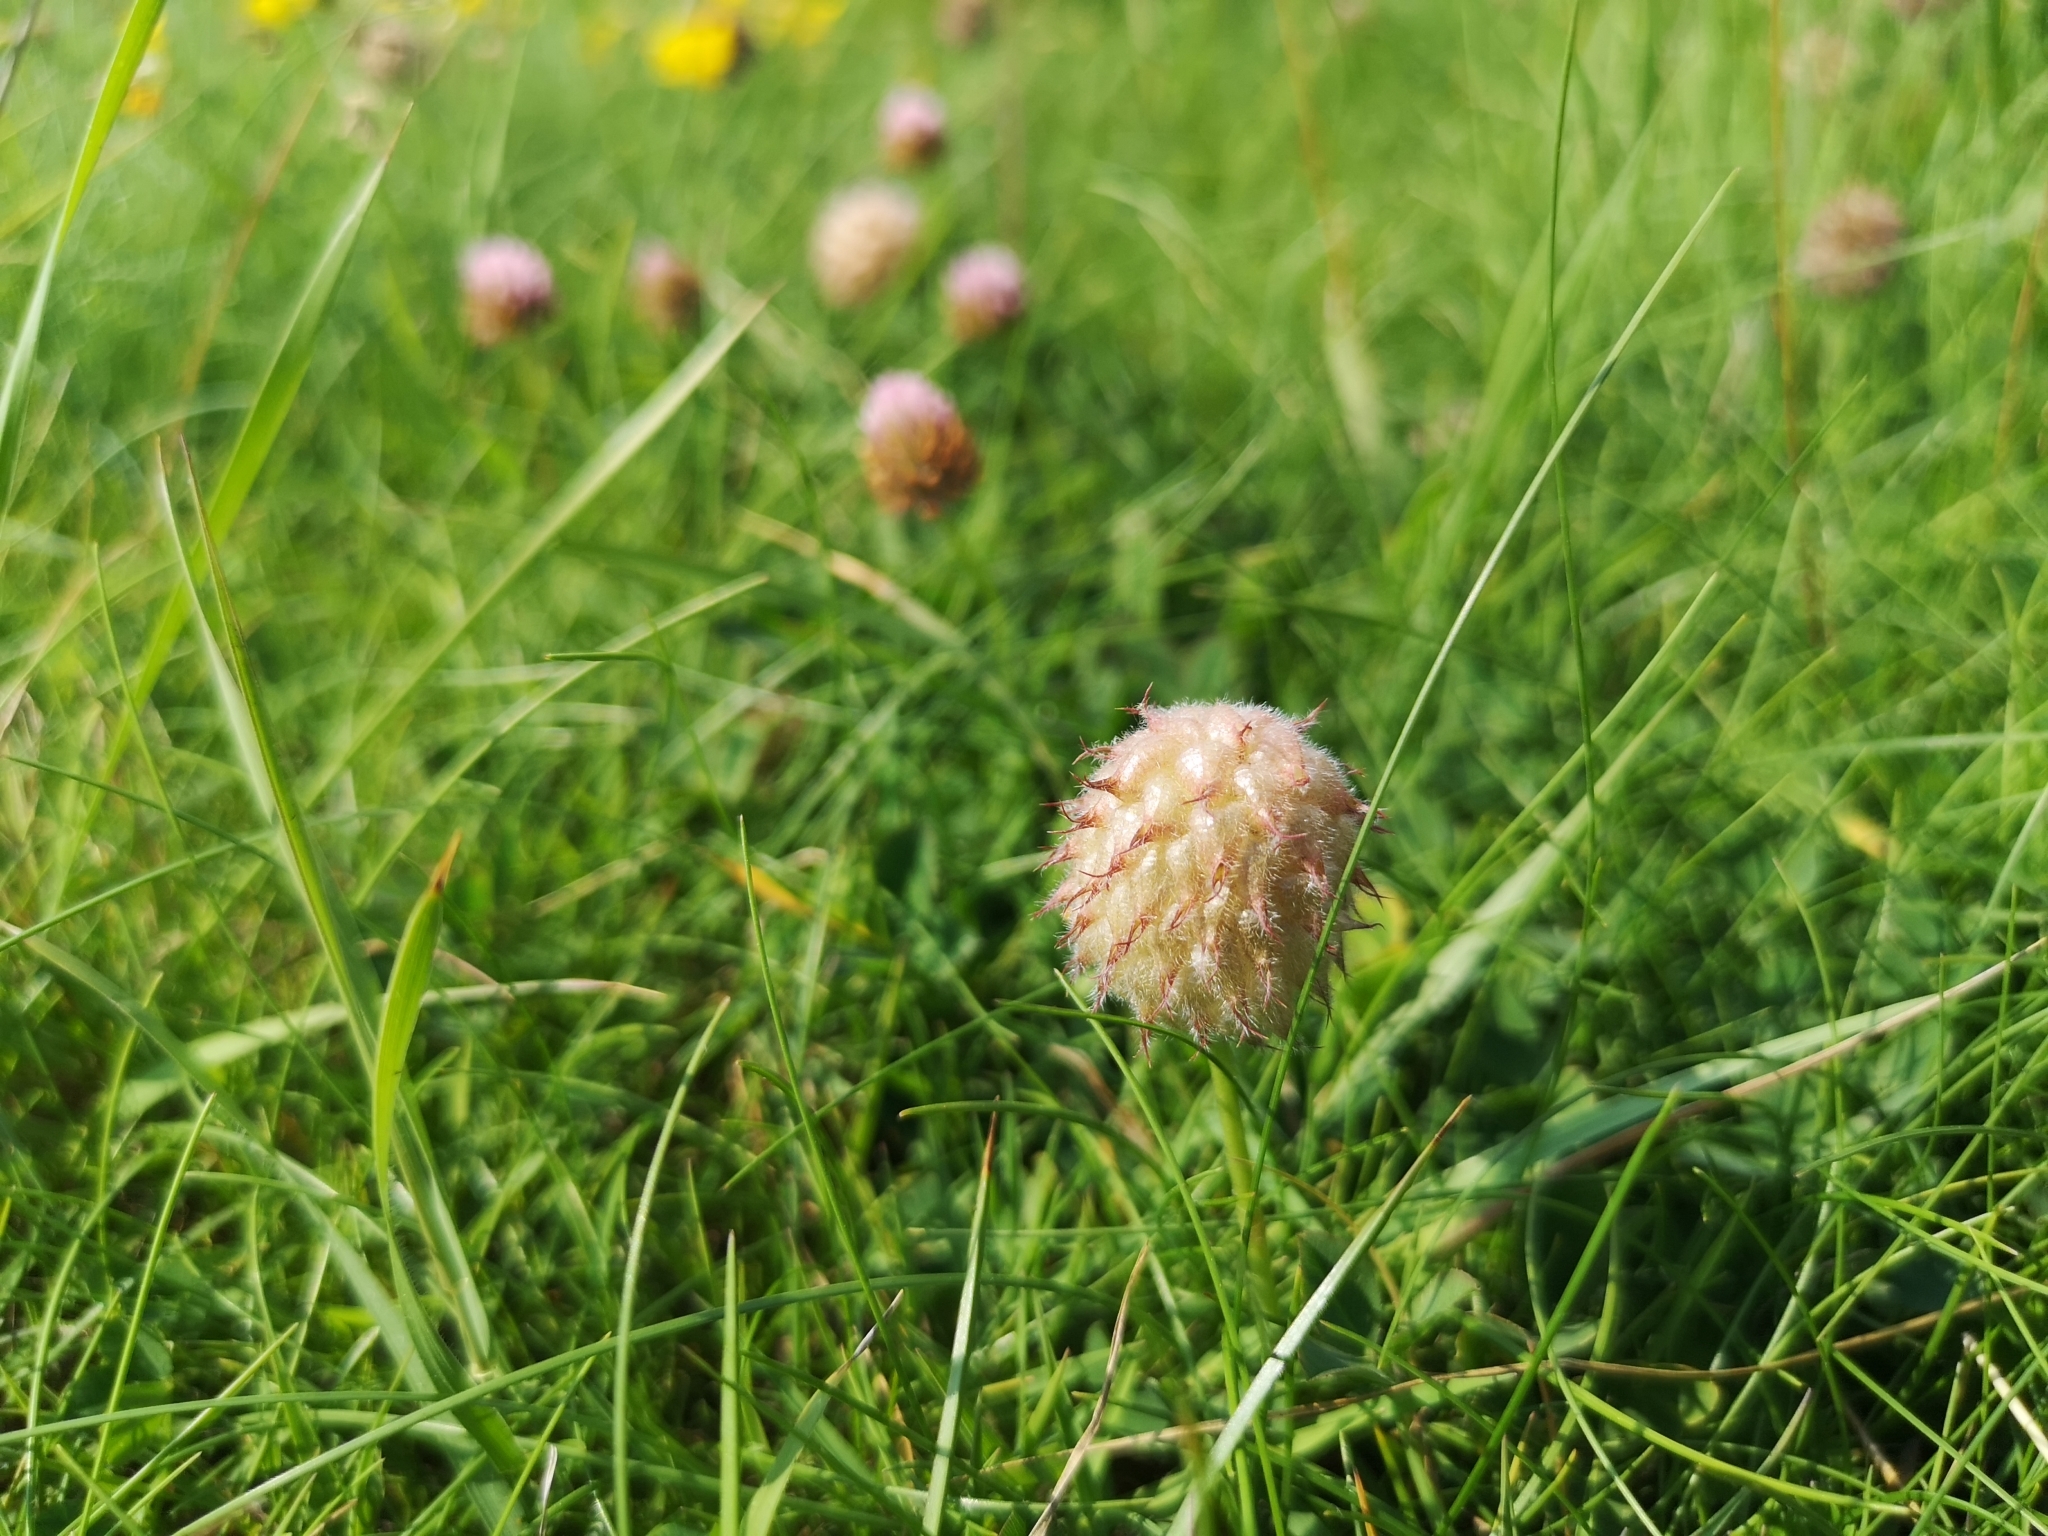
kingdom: Plantae
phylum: Tracheophyta
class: Magnoliopsida
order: Fabales
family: Fabaceae
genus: Trifolium
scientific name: Trifolium fragiferum
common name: Strawberry clover
